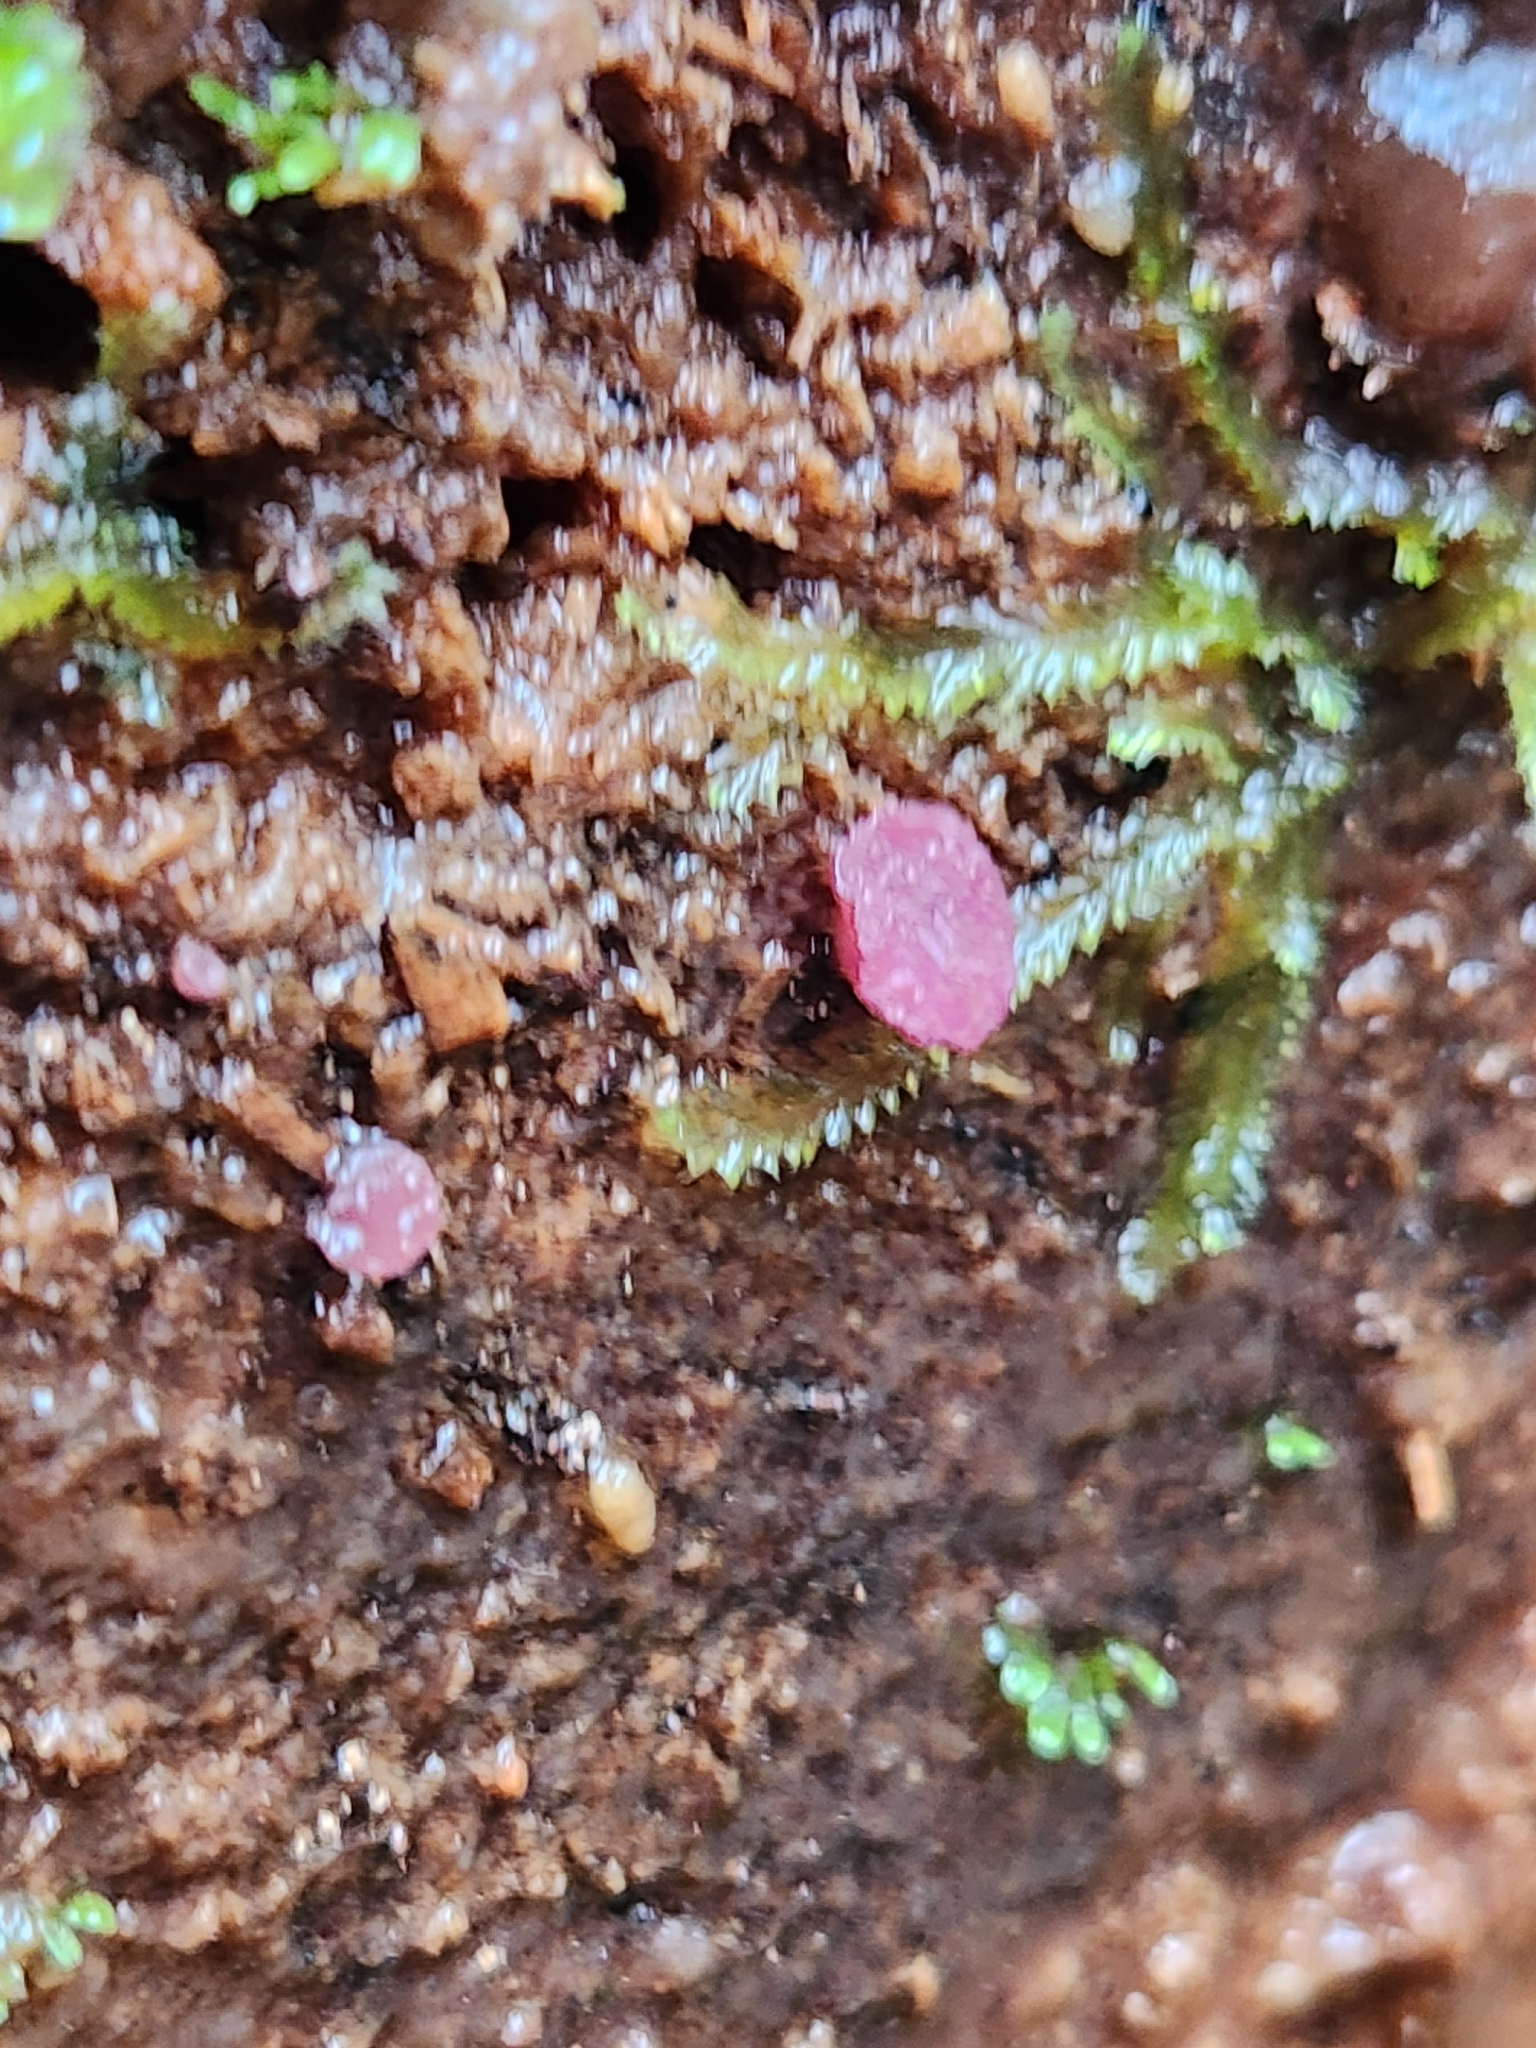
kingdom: Fungi
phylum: Ascomycota
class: Leotiomycetes
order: Helotiales
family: Gelatinodiscaceae
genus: Ascocoryne
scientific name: Ascocoryne sarcoides
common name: Purple jellydisc
